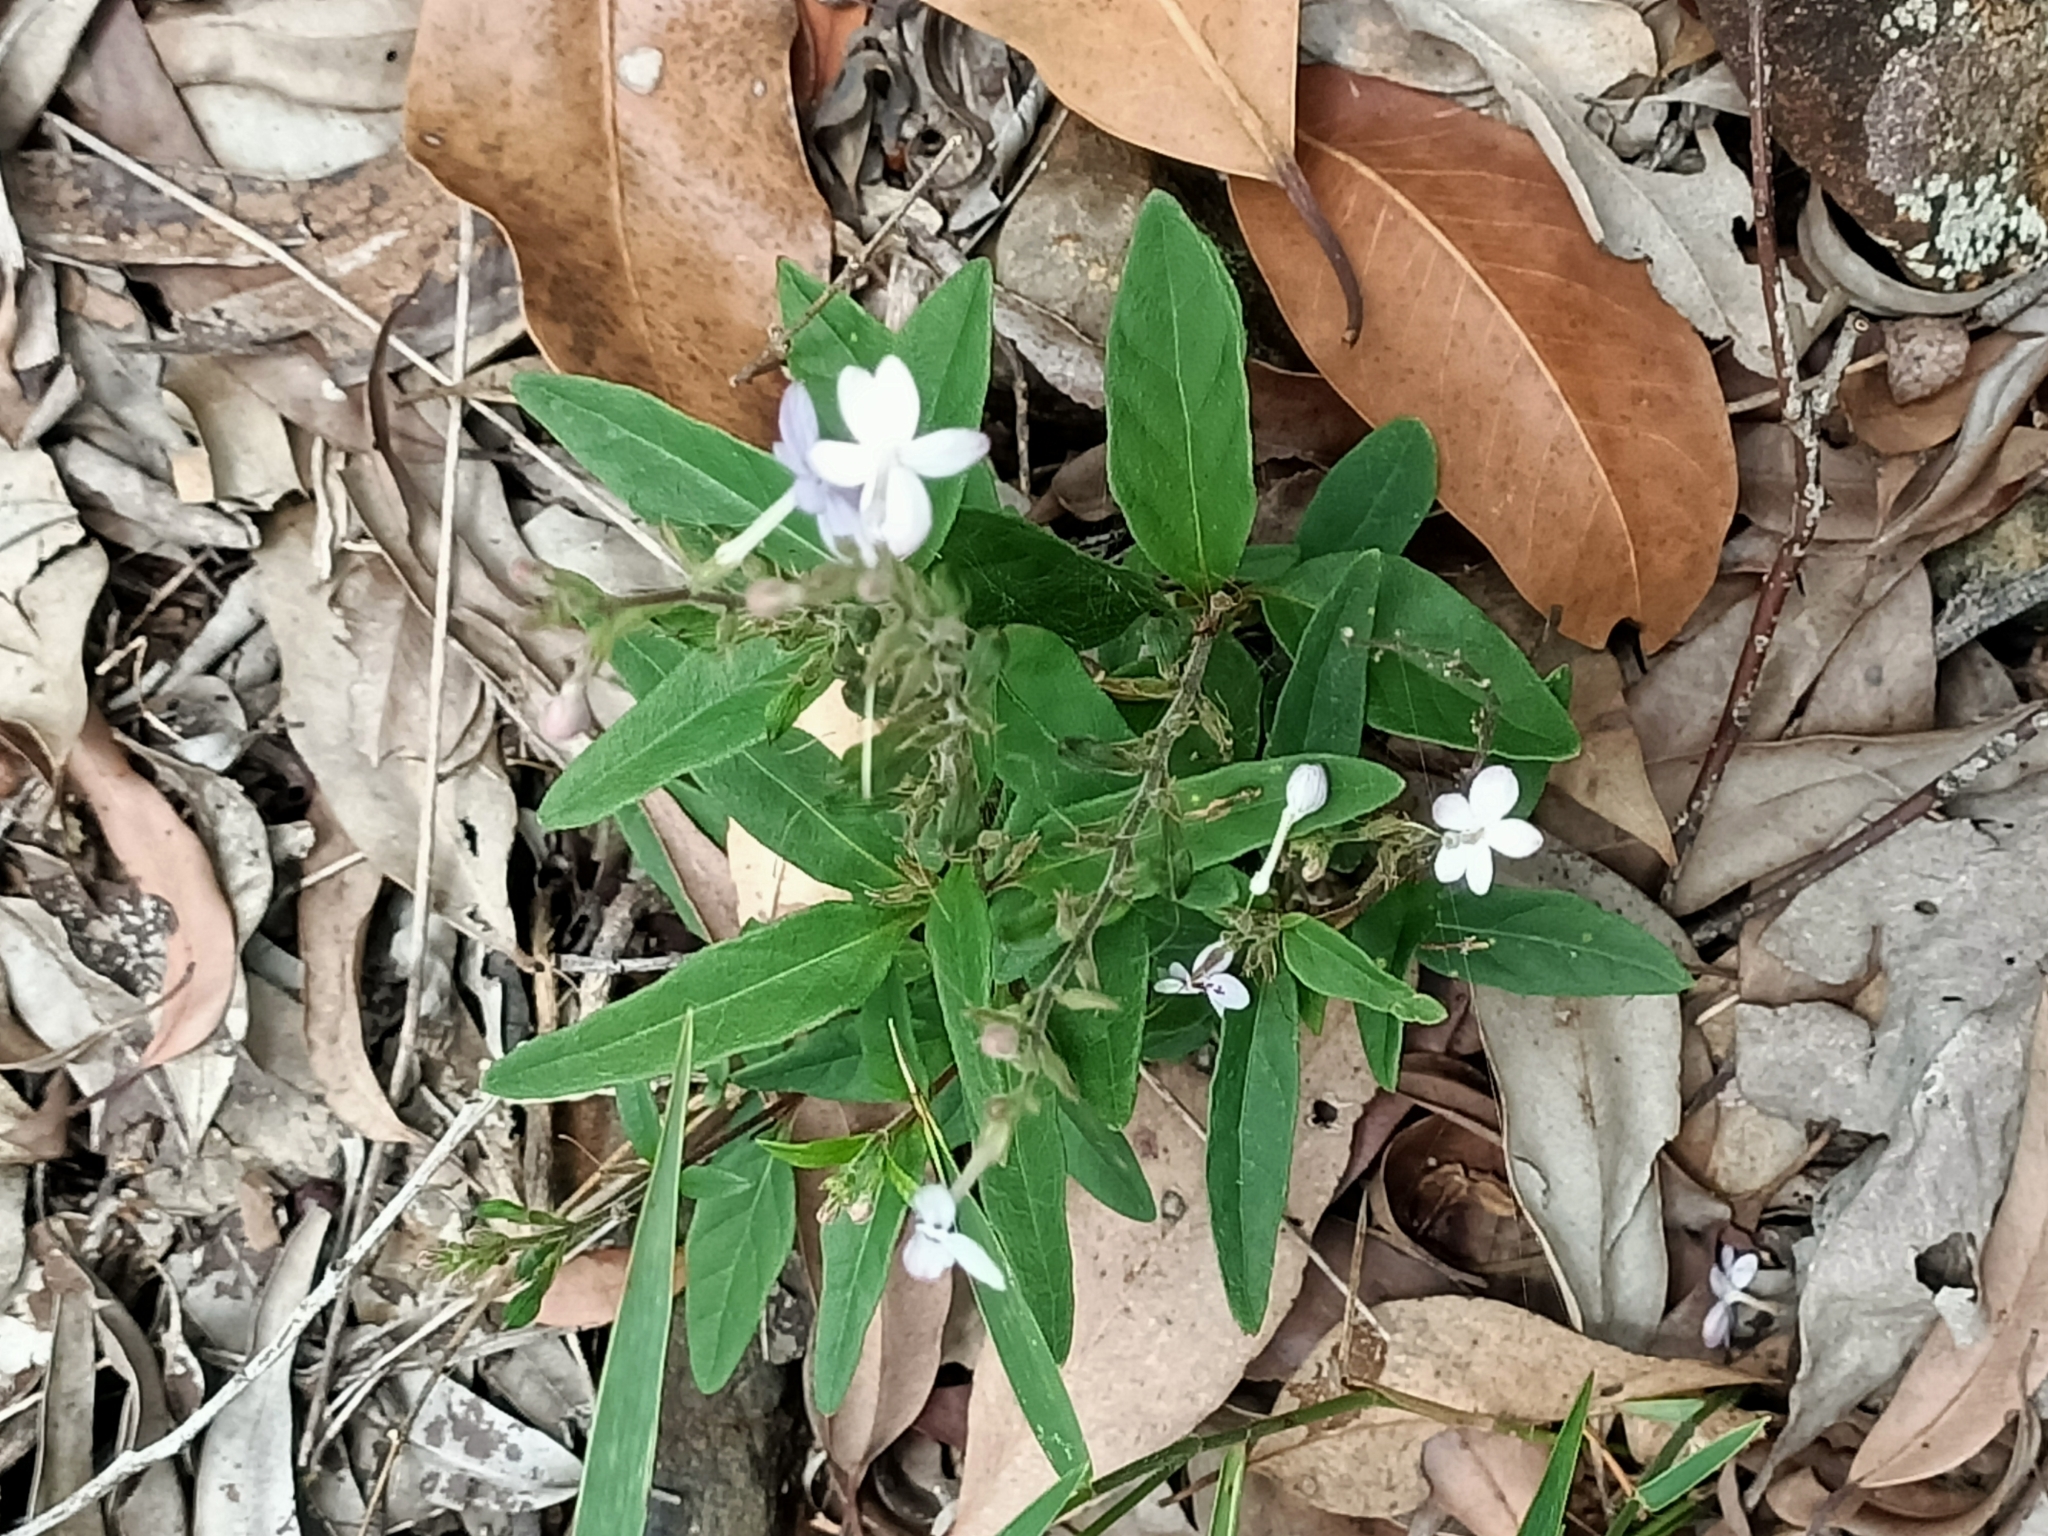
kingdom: Plantae
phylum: Tracheophyta
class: Magnoliopsida
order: Lamiales
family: Acanthaceae
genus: Pseuderanthemum
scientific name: Pseuderanthemum variabile
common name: Night and afternoon
